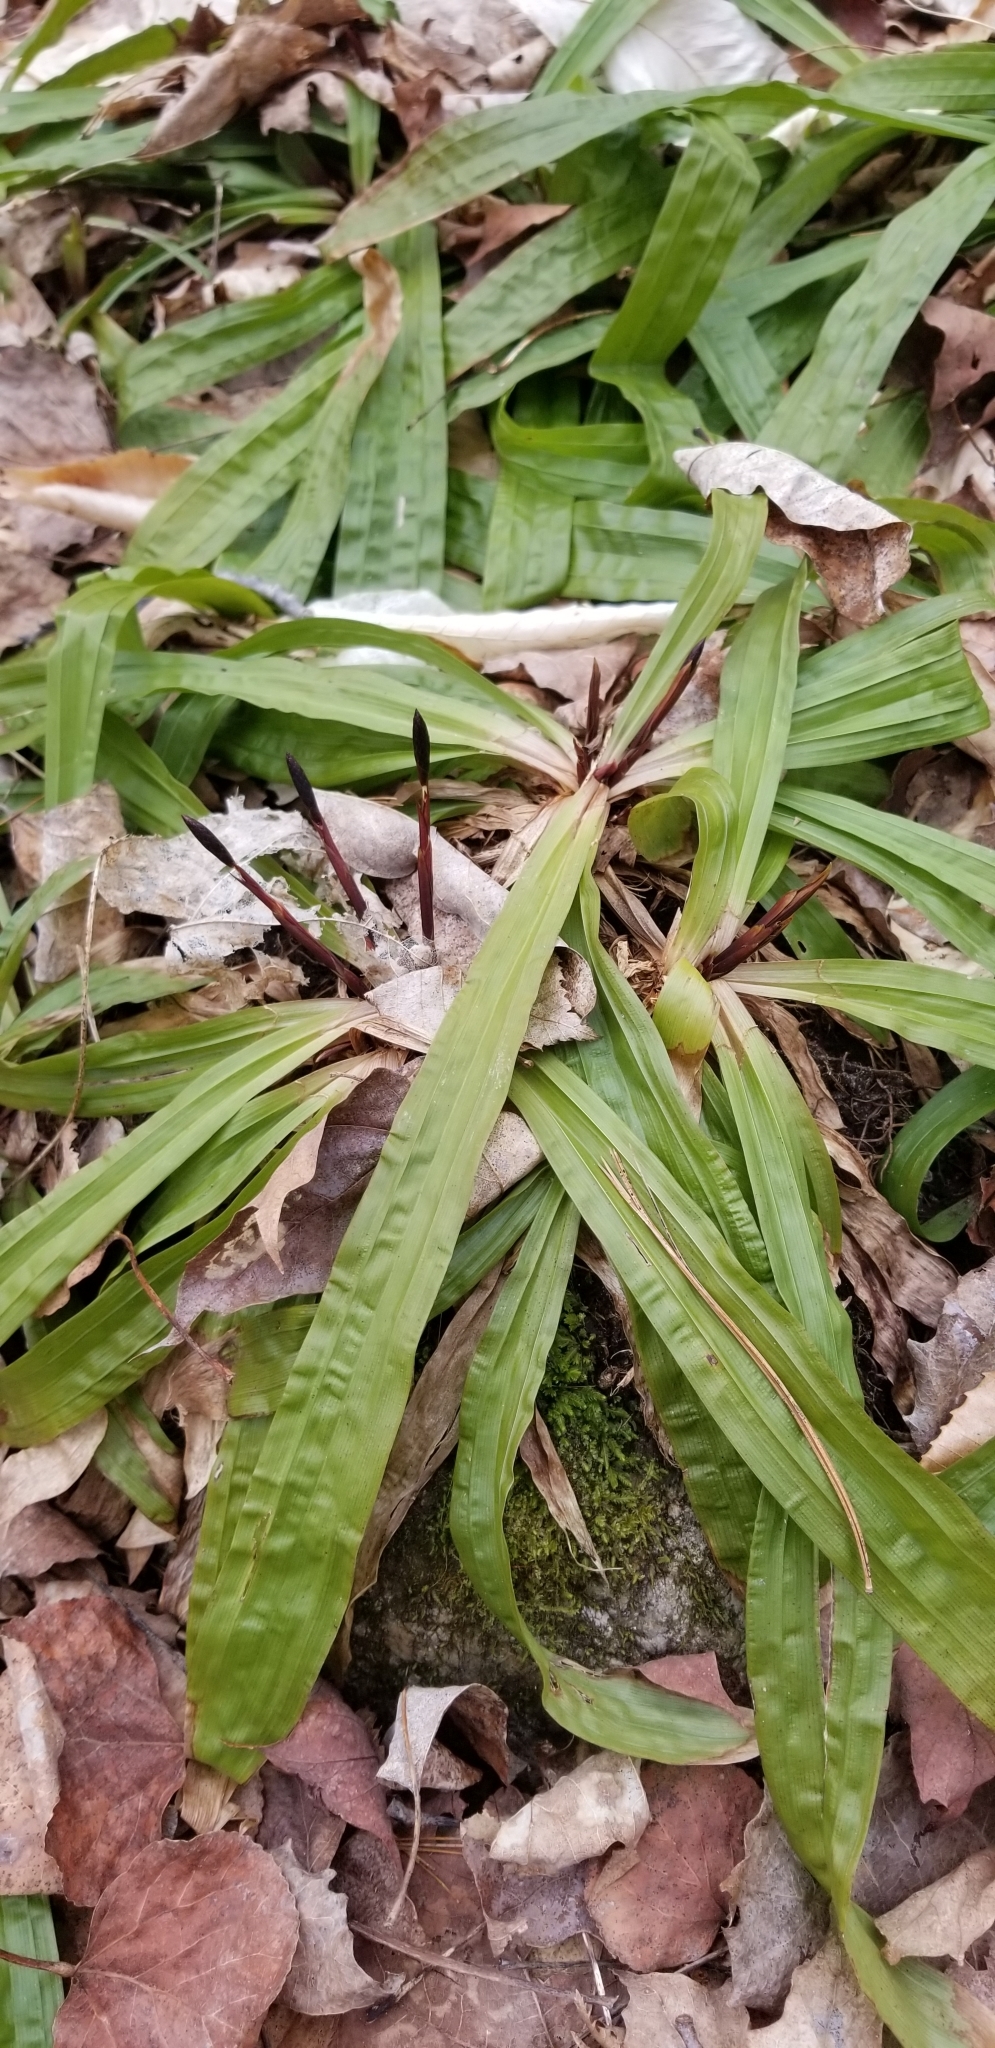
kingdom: Plantae
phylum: Tracheophyta
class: Liliopsida
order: Poales
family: Cyperaceae
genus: Carex
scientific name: Carex plantaginea
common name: Plantain-leaved sedge
